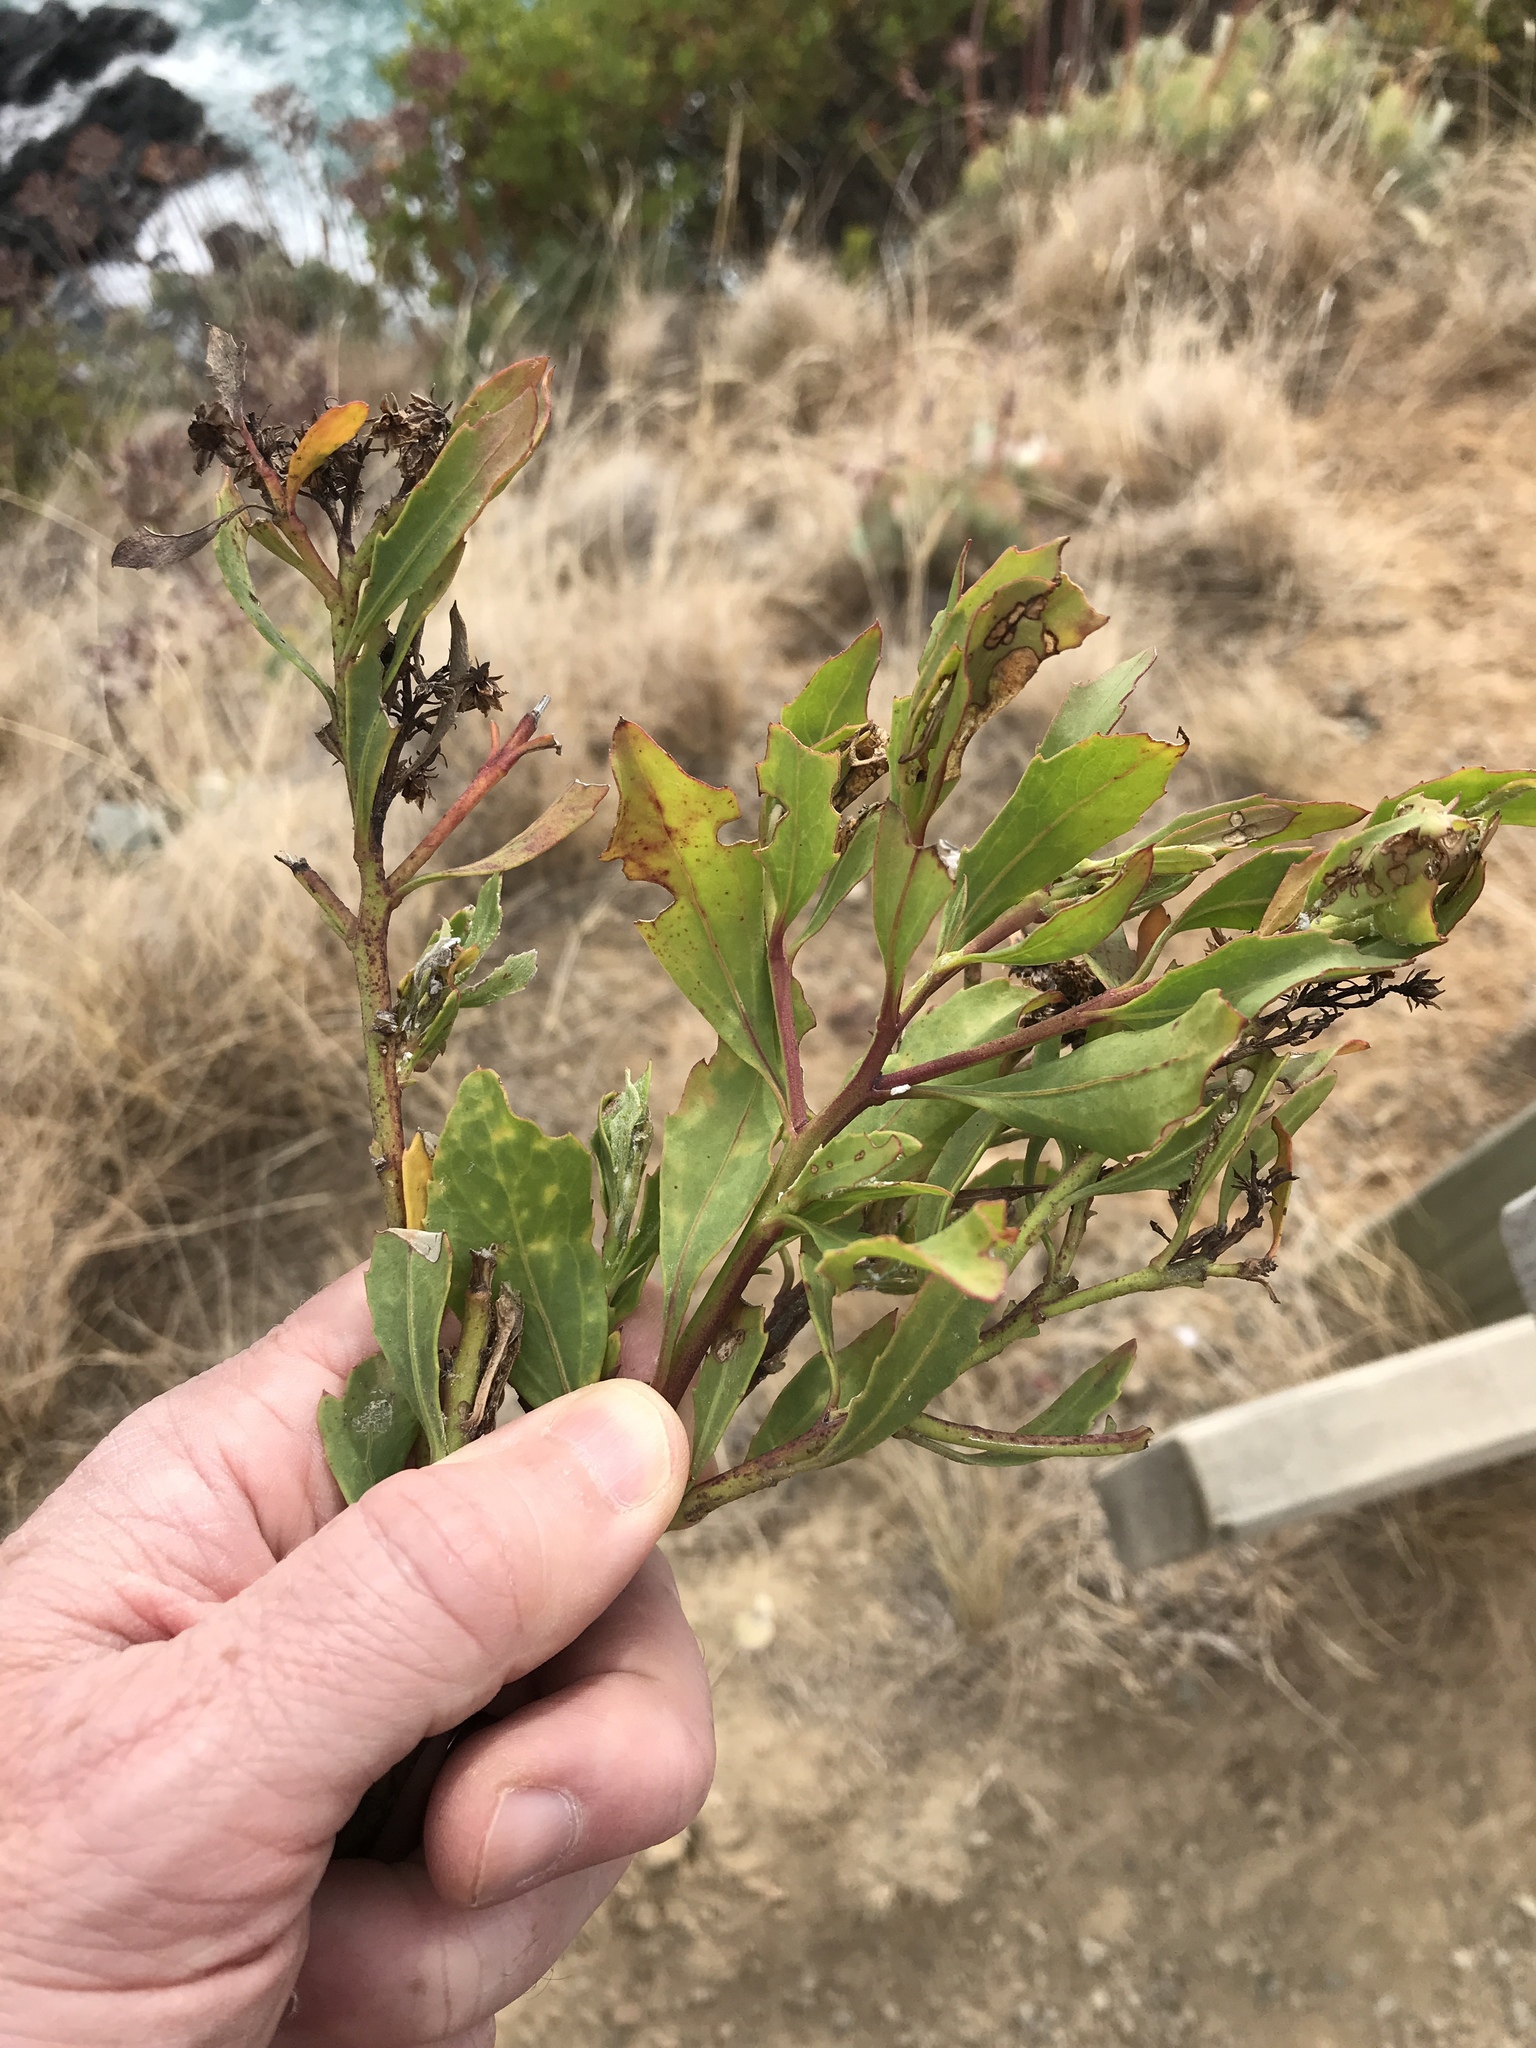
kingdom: Plantae
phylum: Tracheophyta
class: Magnoliopsida
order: Asterales
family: Asteraceae
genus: Osteospermum
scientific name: Osteospermum moniliferum
